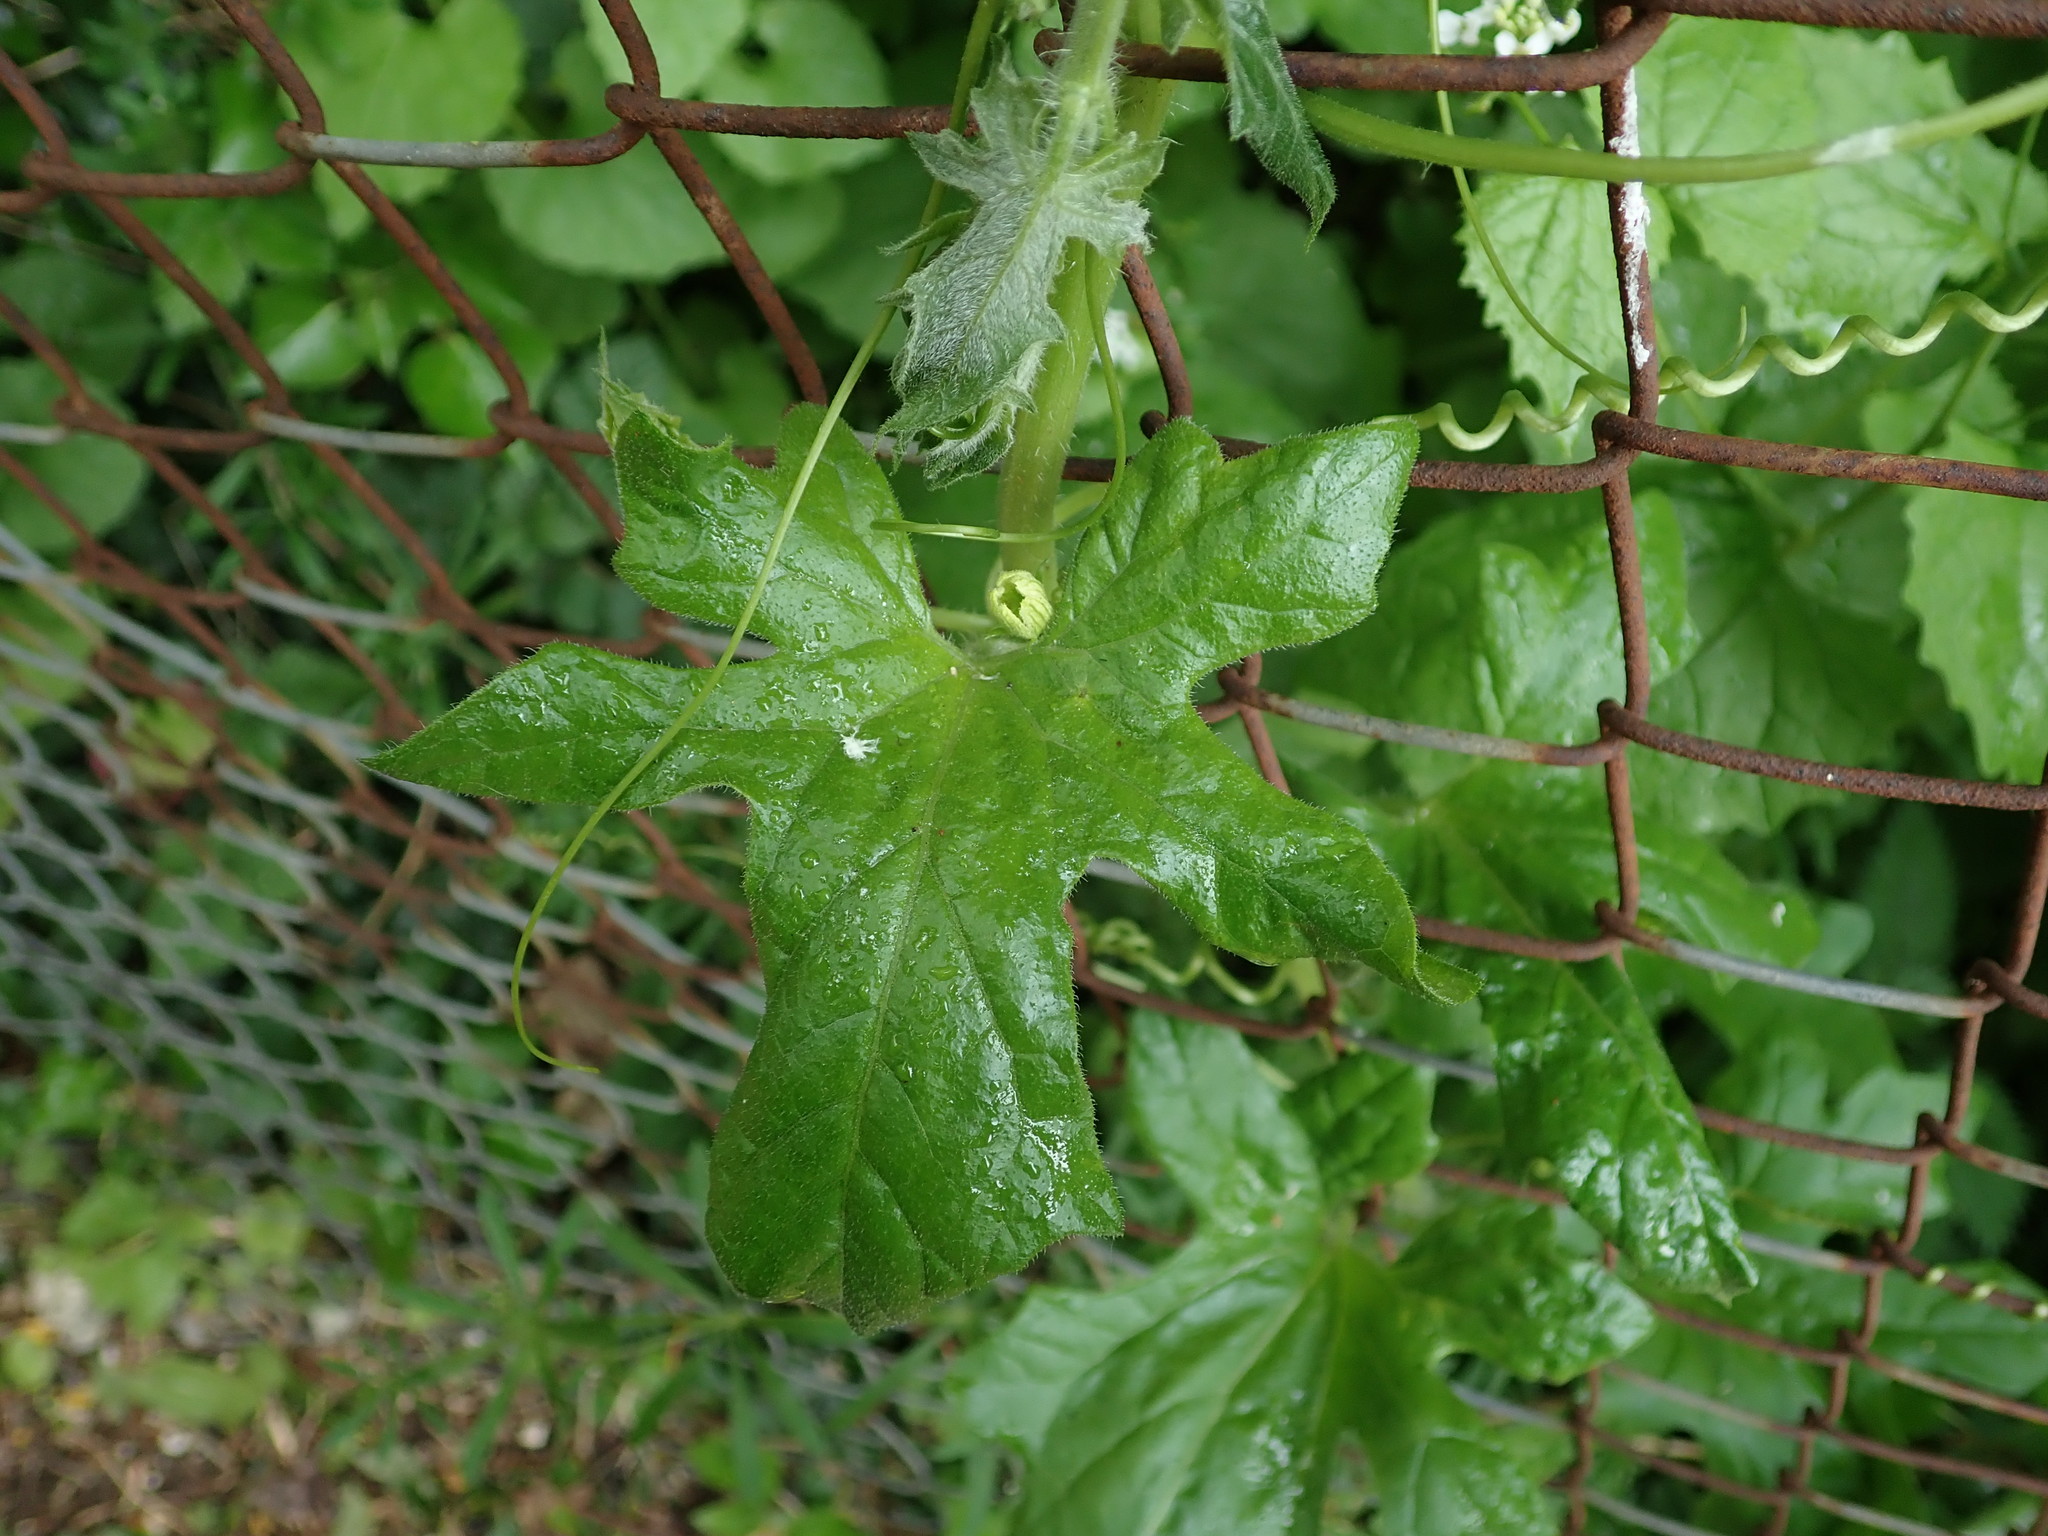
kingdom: Plantae
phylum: Tracheophyta
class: Magnoliopsida
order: Cucurbitales
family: Cucurbitaceae
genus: Bryonia
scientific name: Bryonia dioica
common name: White bryony
